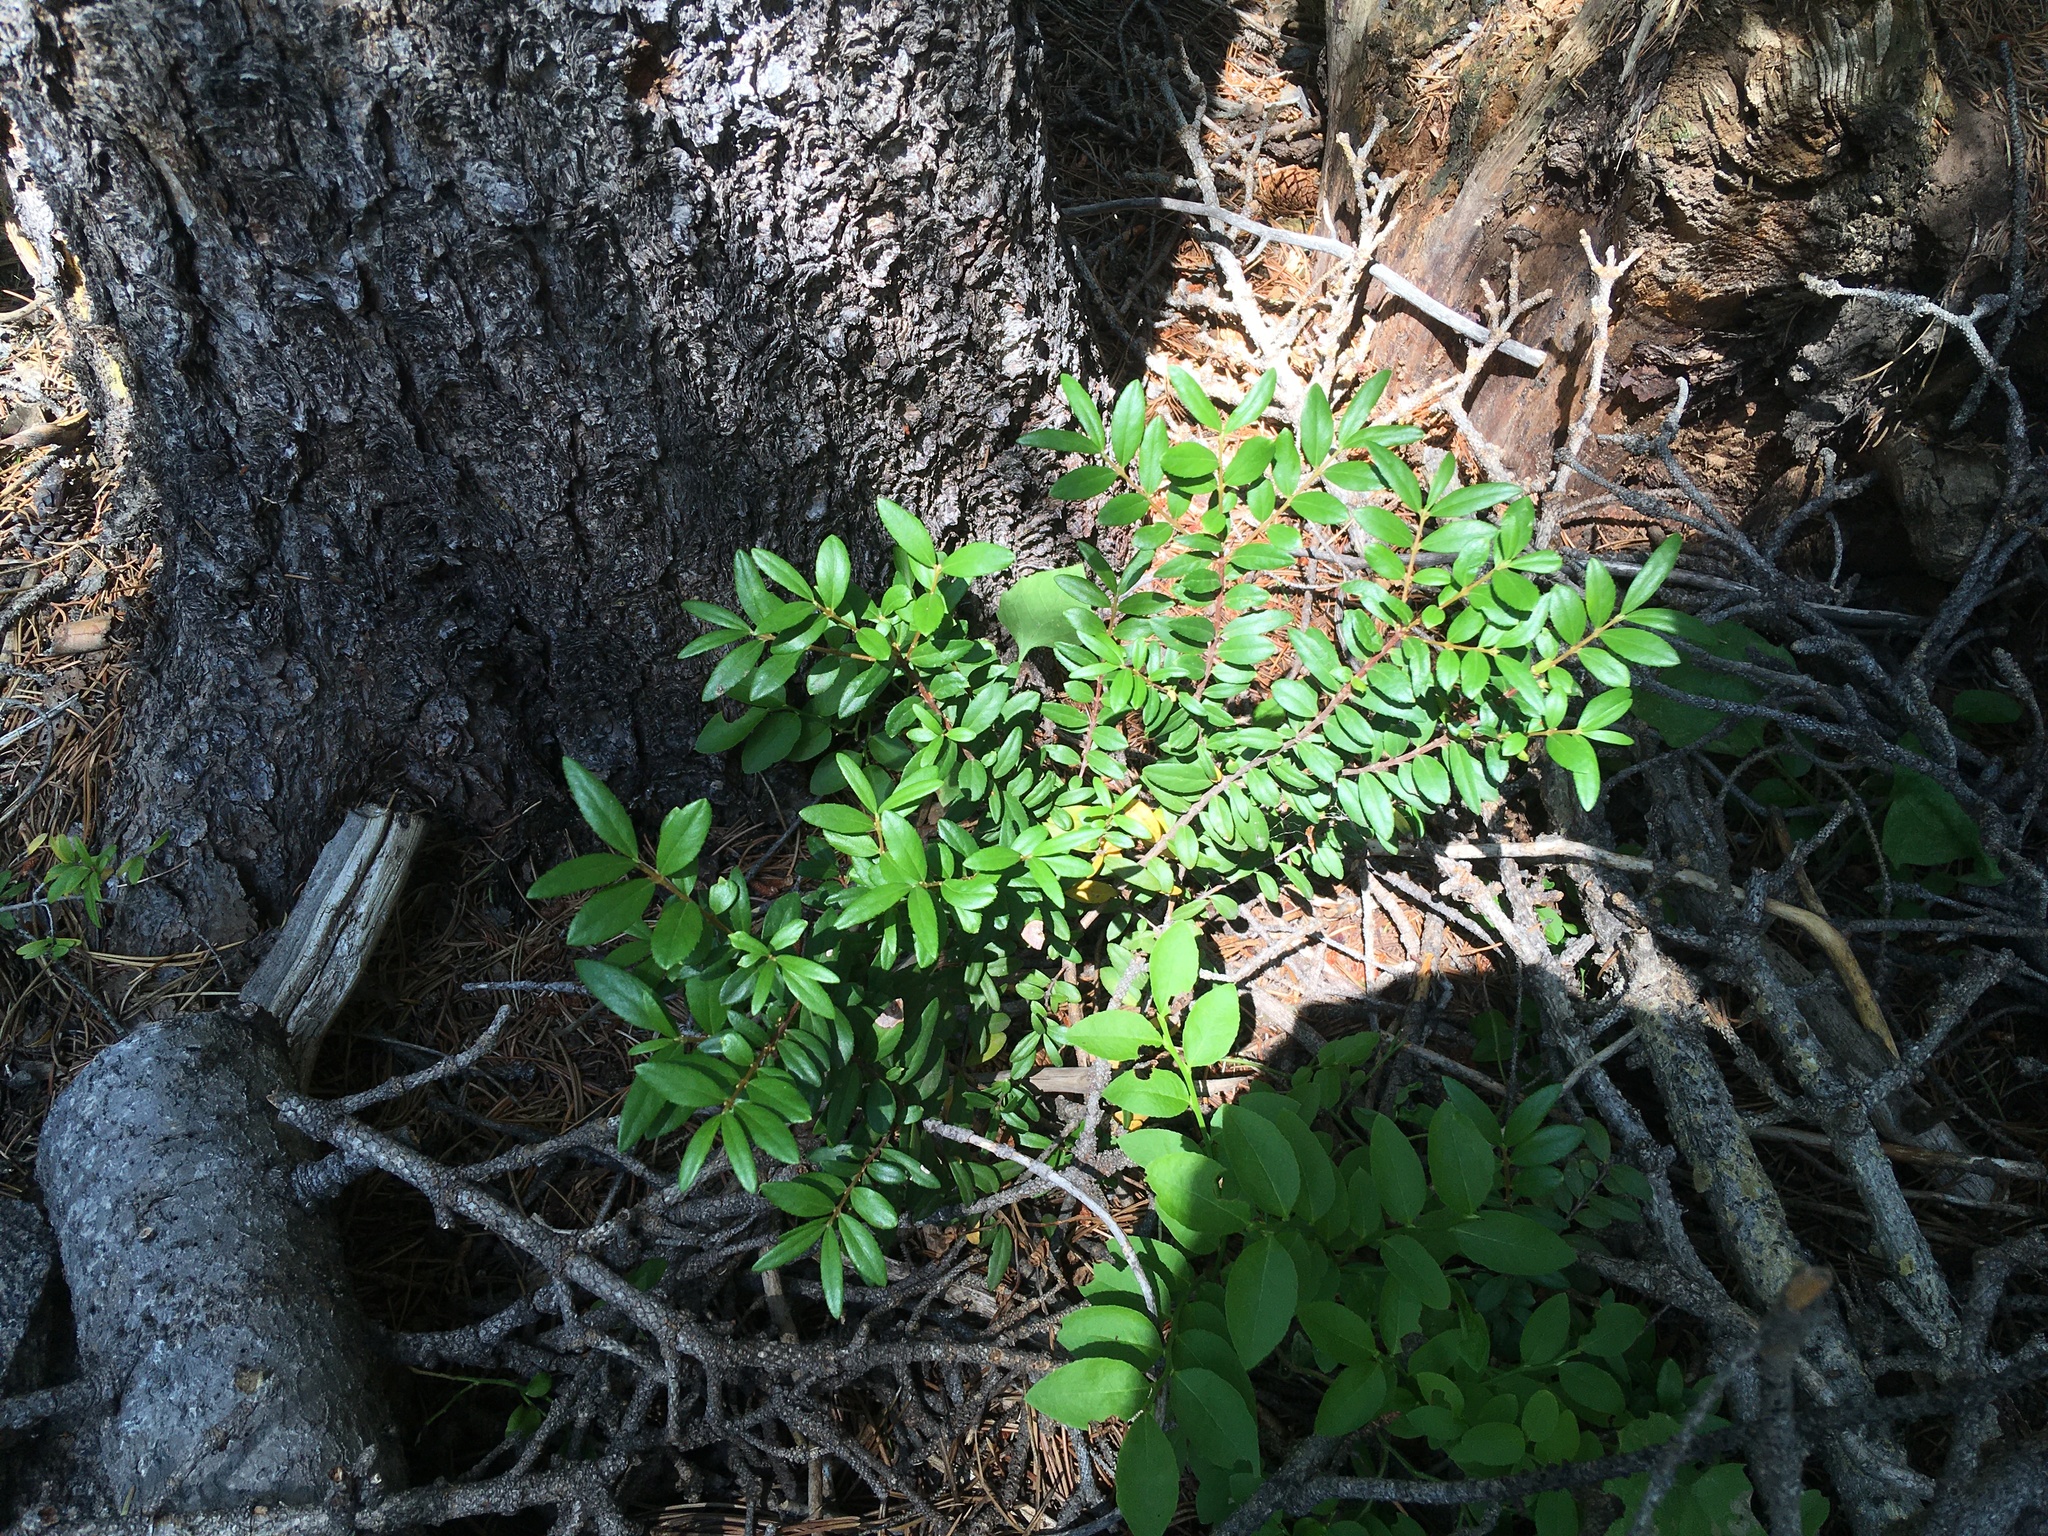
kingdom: Plantae
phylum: Tracheophyta
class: Magnoliopsida
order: Celastrales
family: Celastraceae
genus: Paxistima
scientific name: Paxistima myrsinites
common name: Mountain-lover
